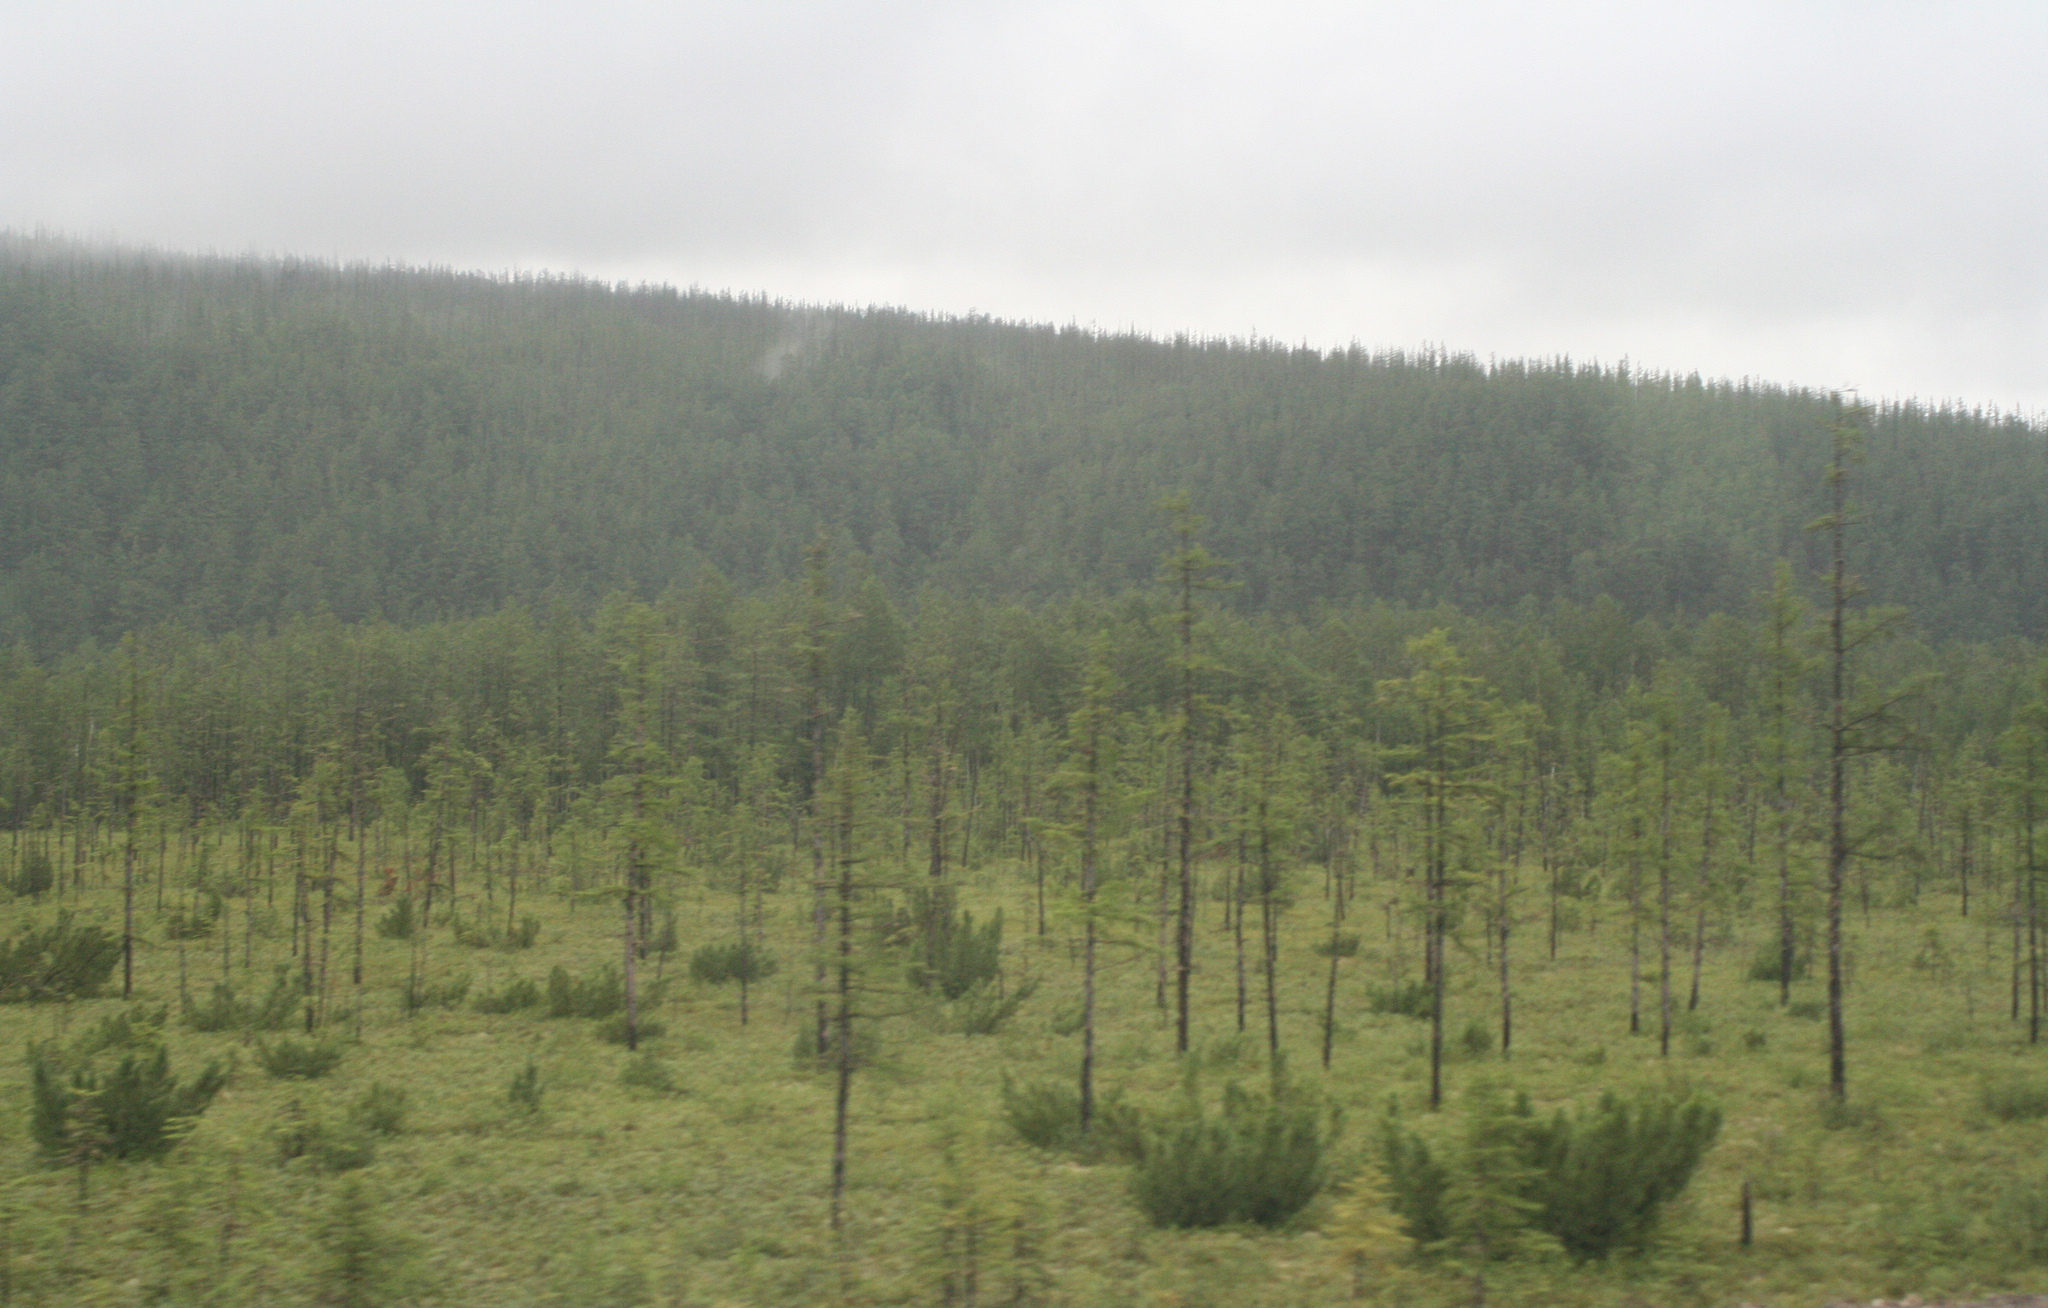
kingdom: Plantae
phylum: Tracheophyta
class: Pinopsida
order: Pinales
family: Pinaceae
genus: Pinus
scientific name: Pinus pumila
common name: Dwarf siberian pine
